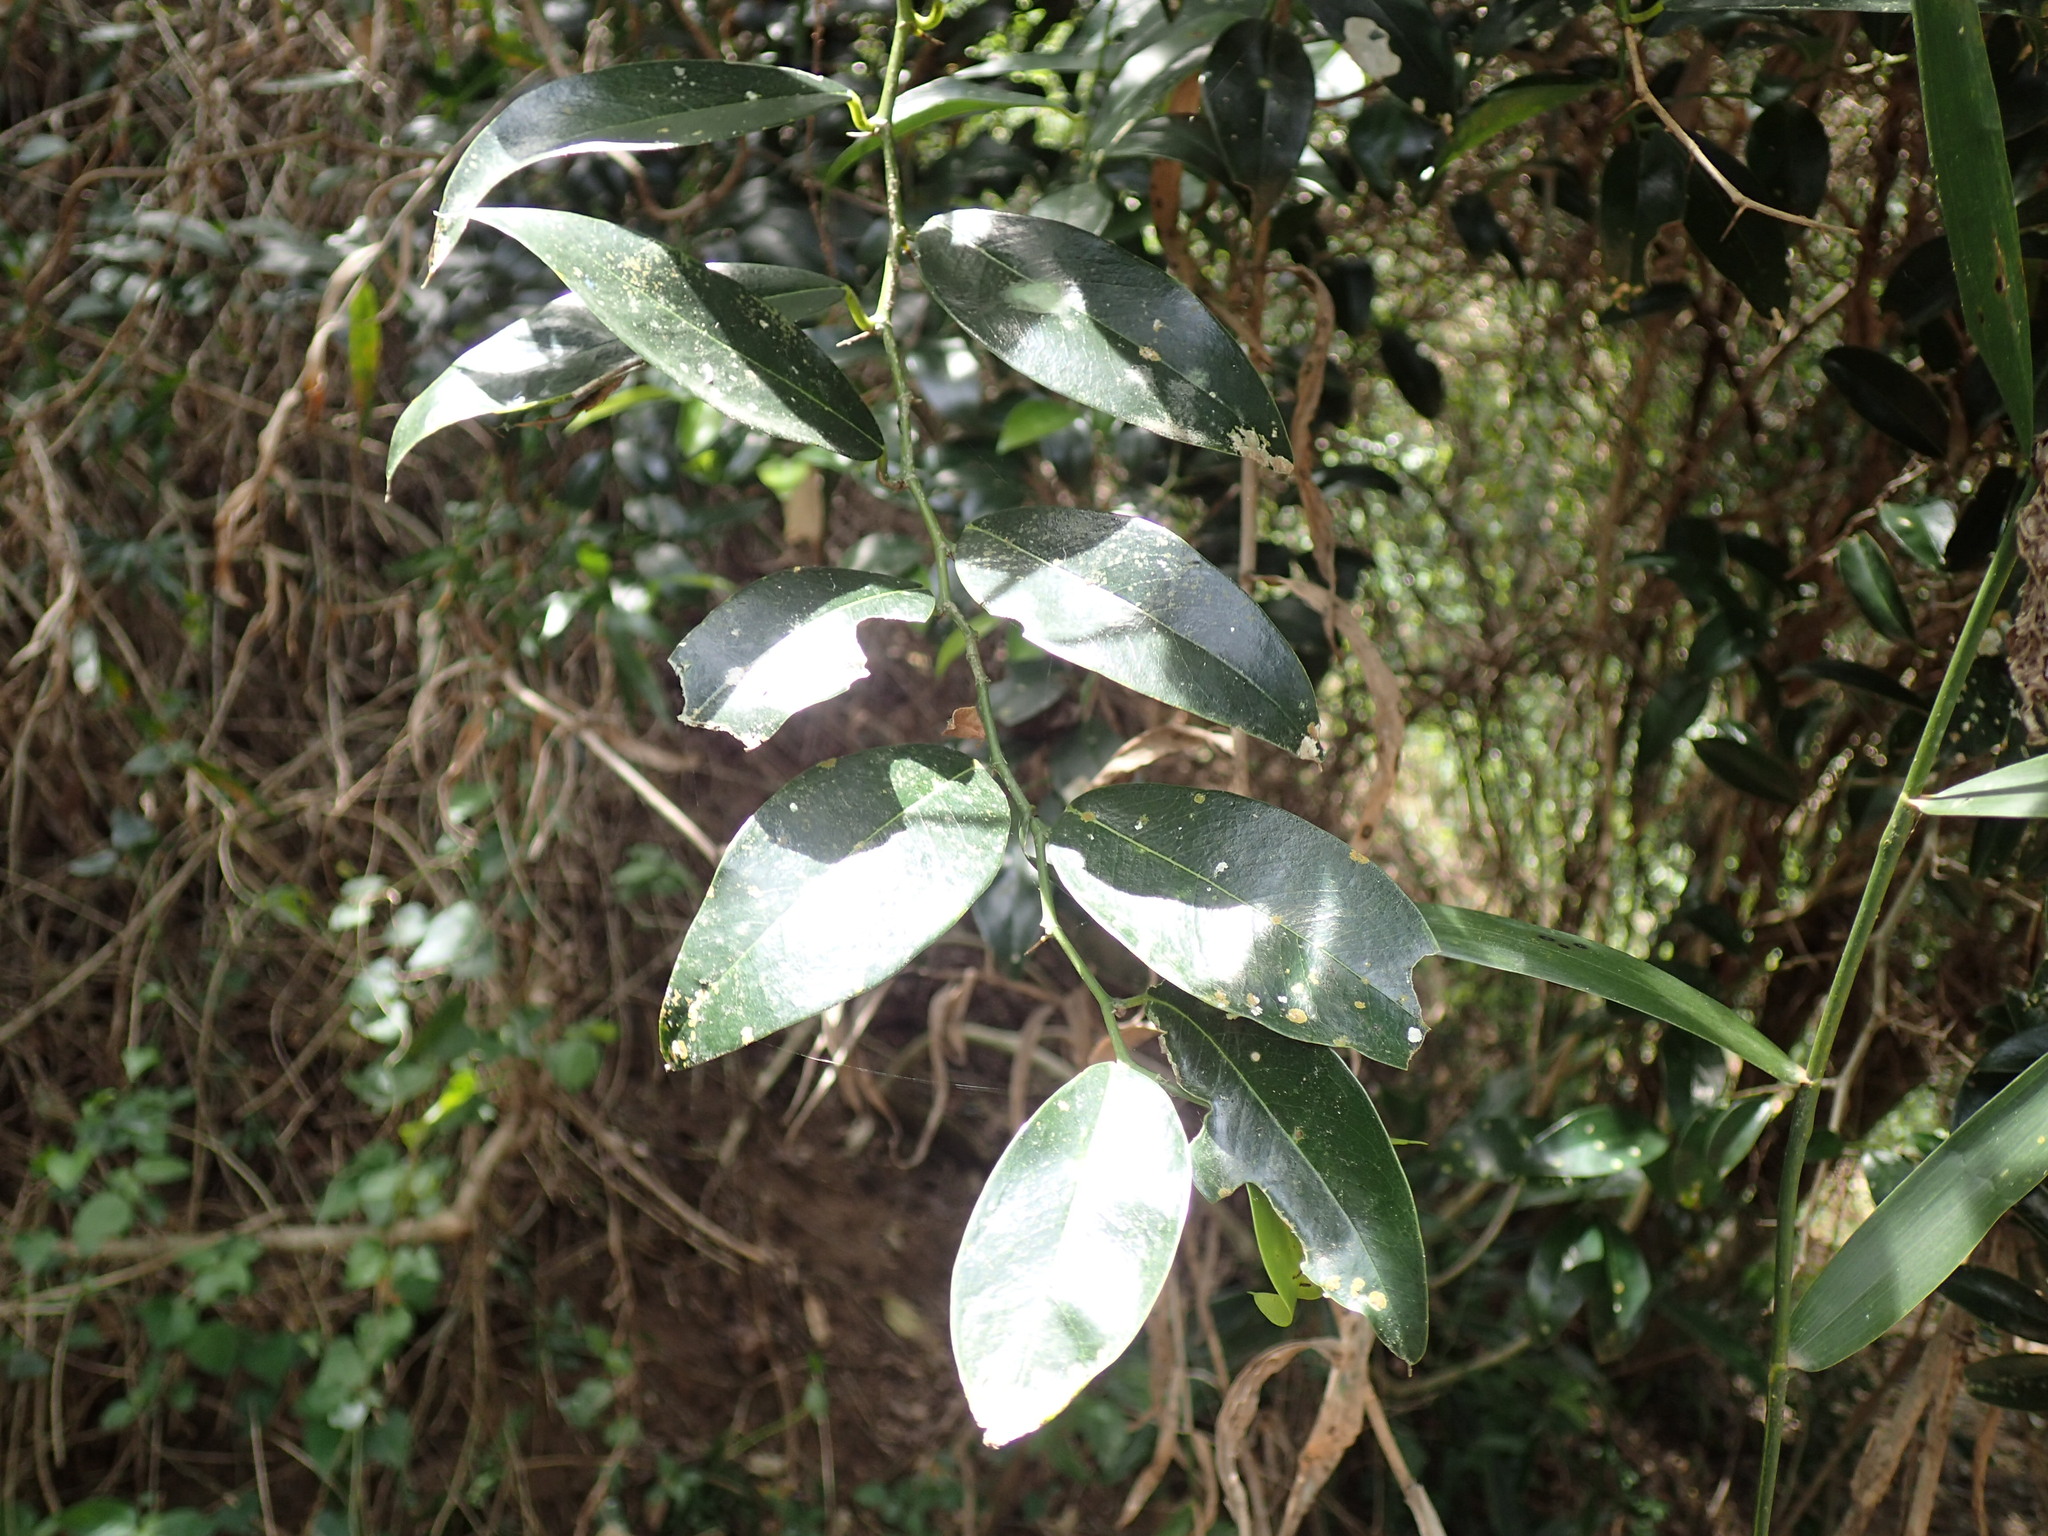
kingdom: Plantae
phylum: Tracheophyta
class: Magnoliopsida
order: Rosales
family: Cannabaceae
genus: Chaetachme
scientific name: Chaetachme aristata
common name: Thorny elm
